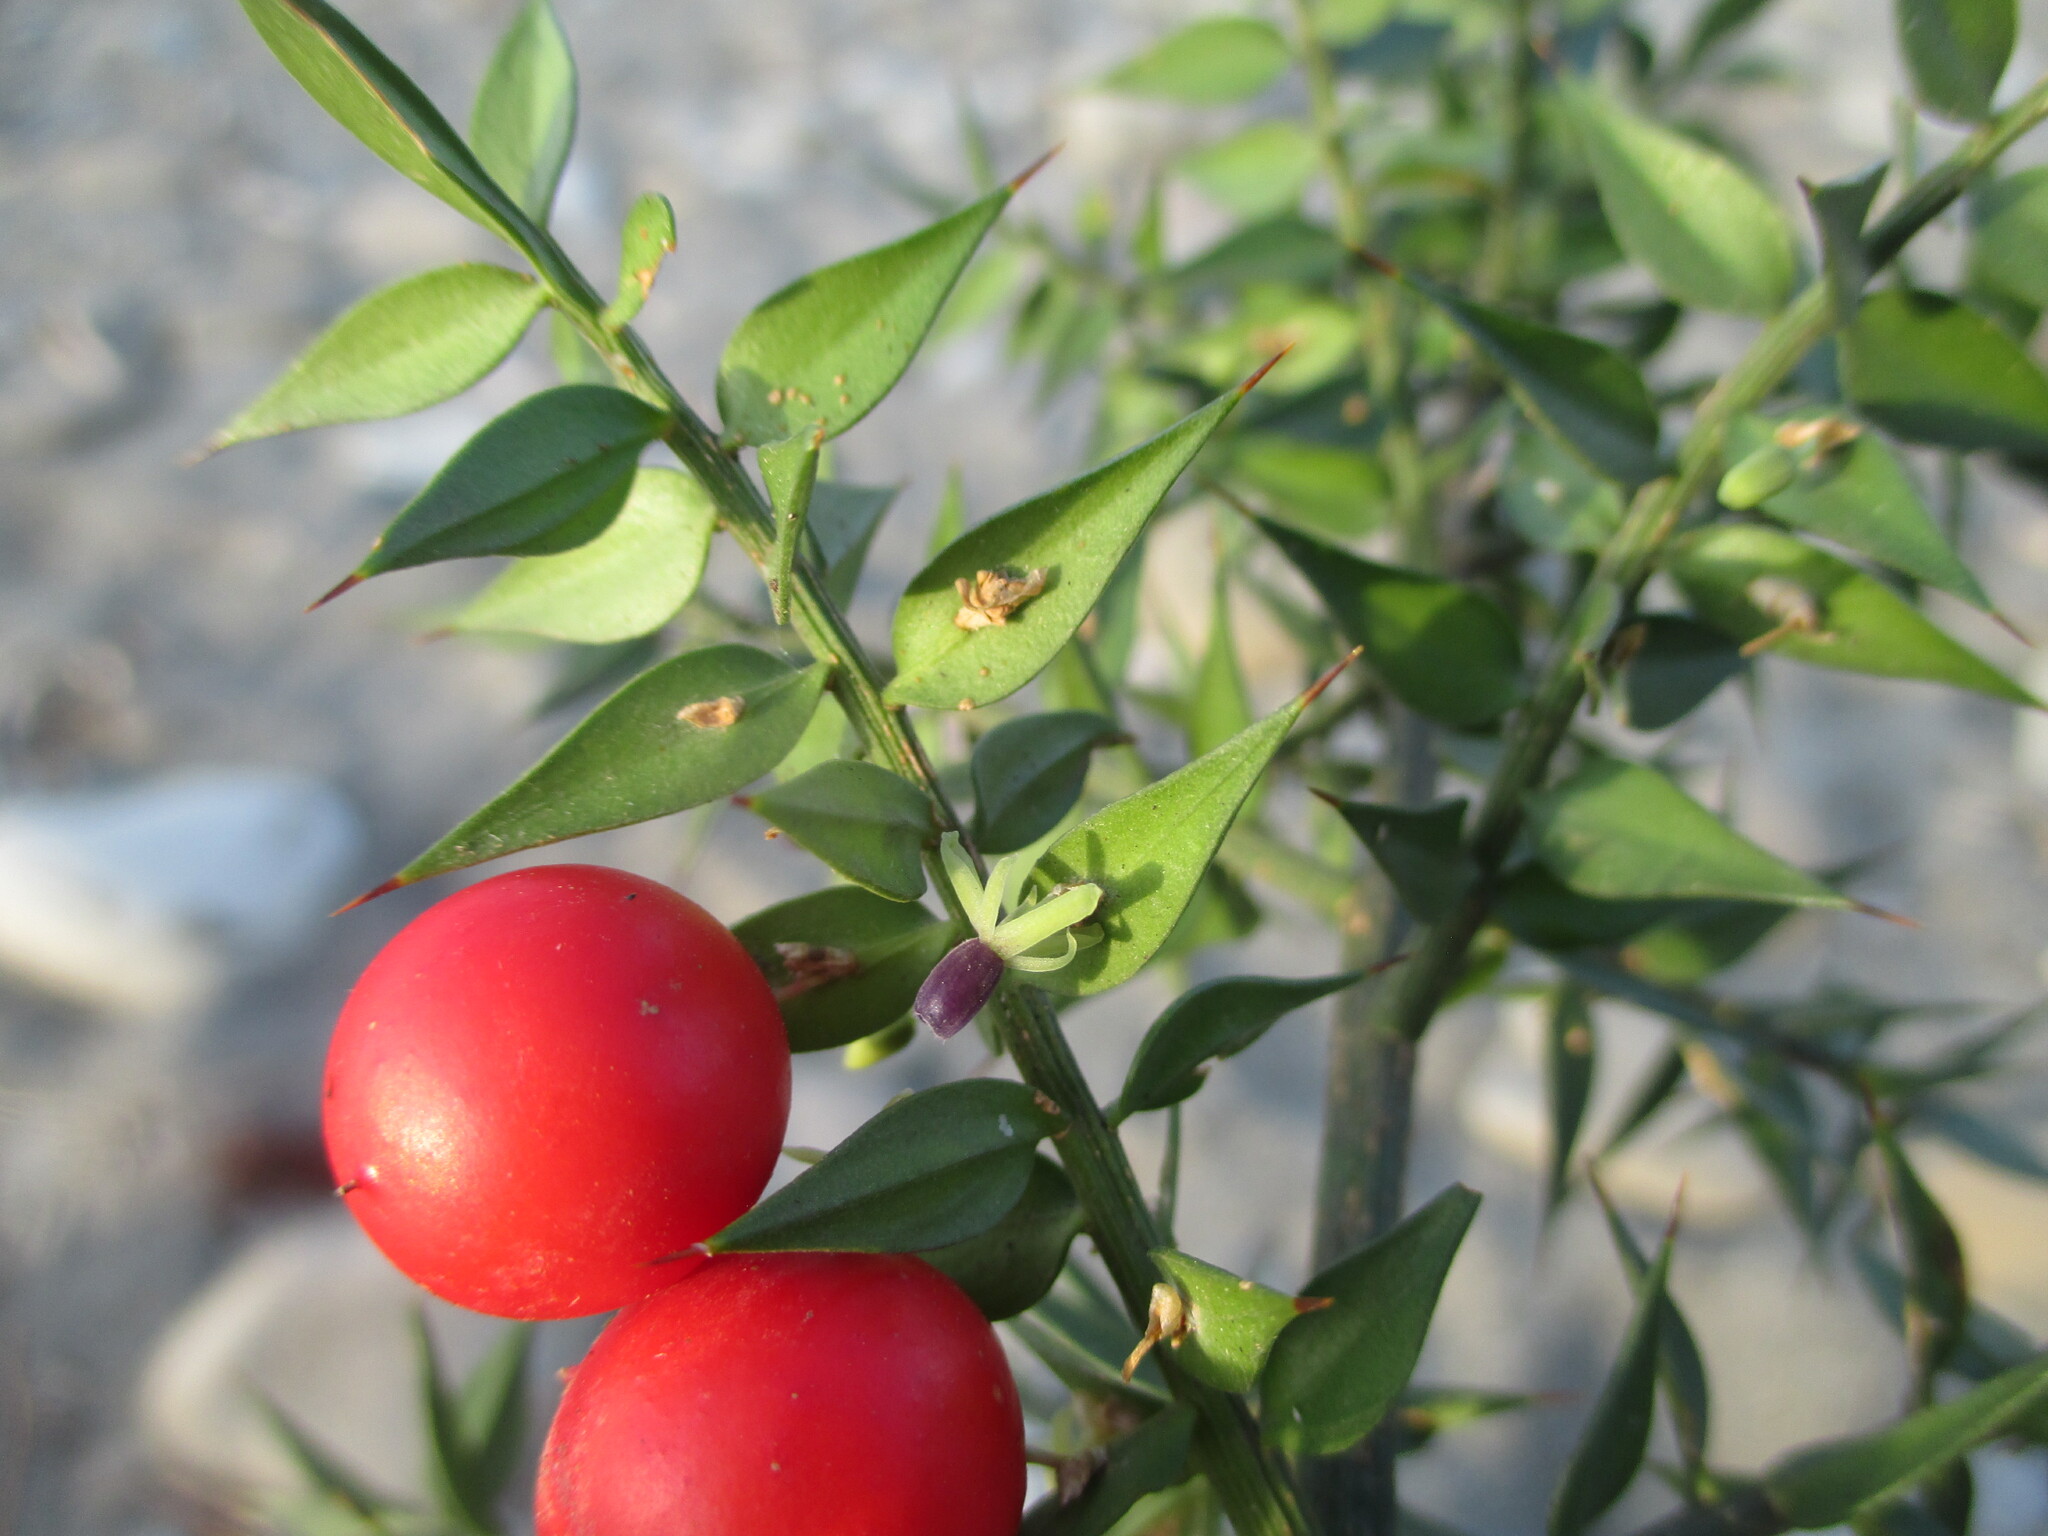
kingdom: Plantae
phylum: Tracheophyta
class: Liliopsida
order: Asparagales
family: Asparagaceae
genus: Ruscus
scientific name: Ruscus aculeatus
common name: Butcher's-broom
